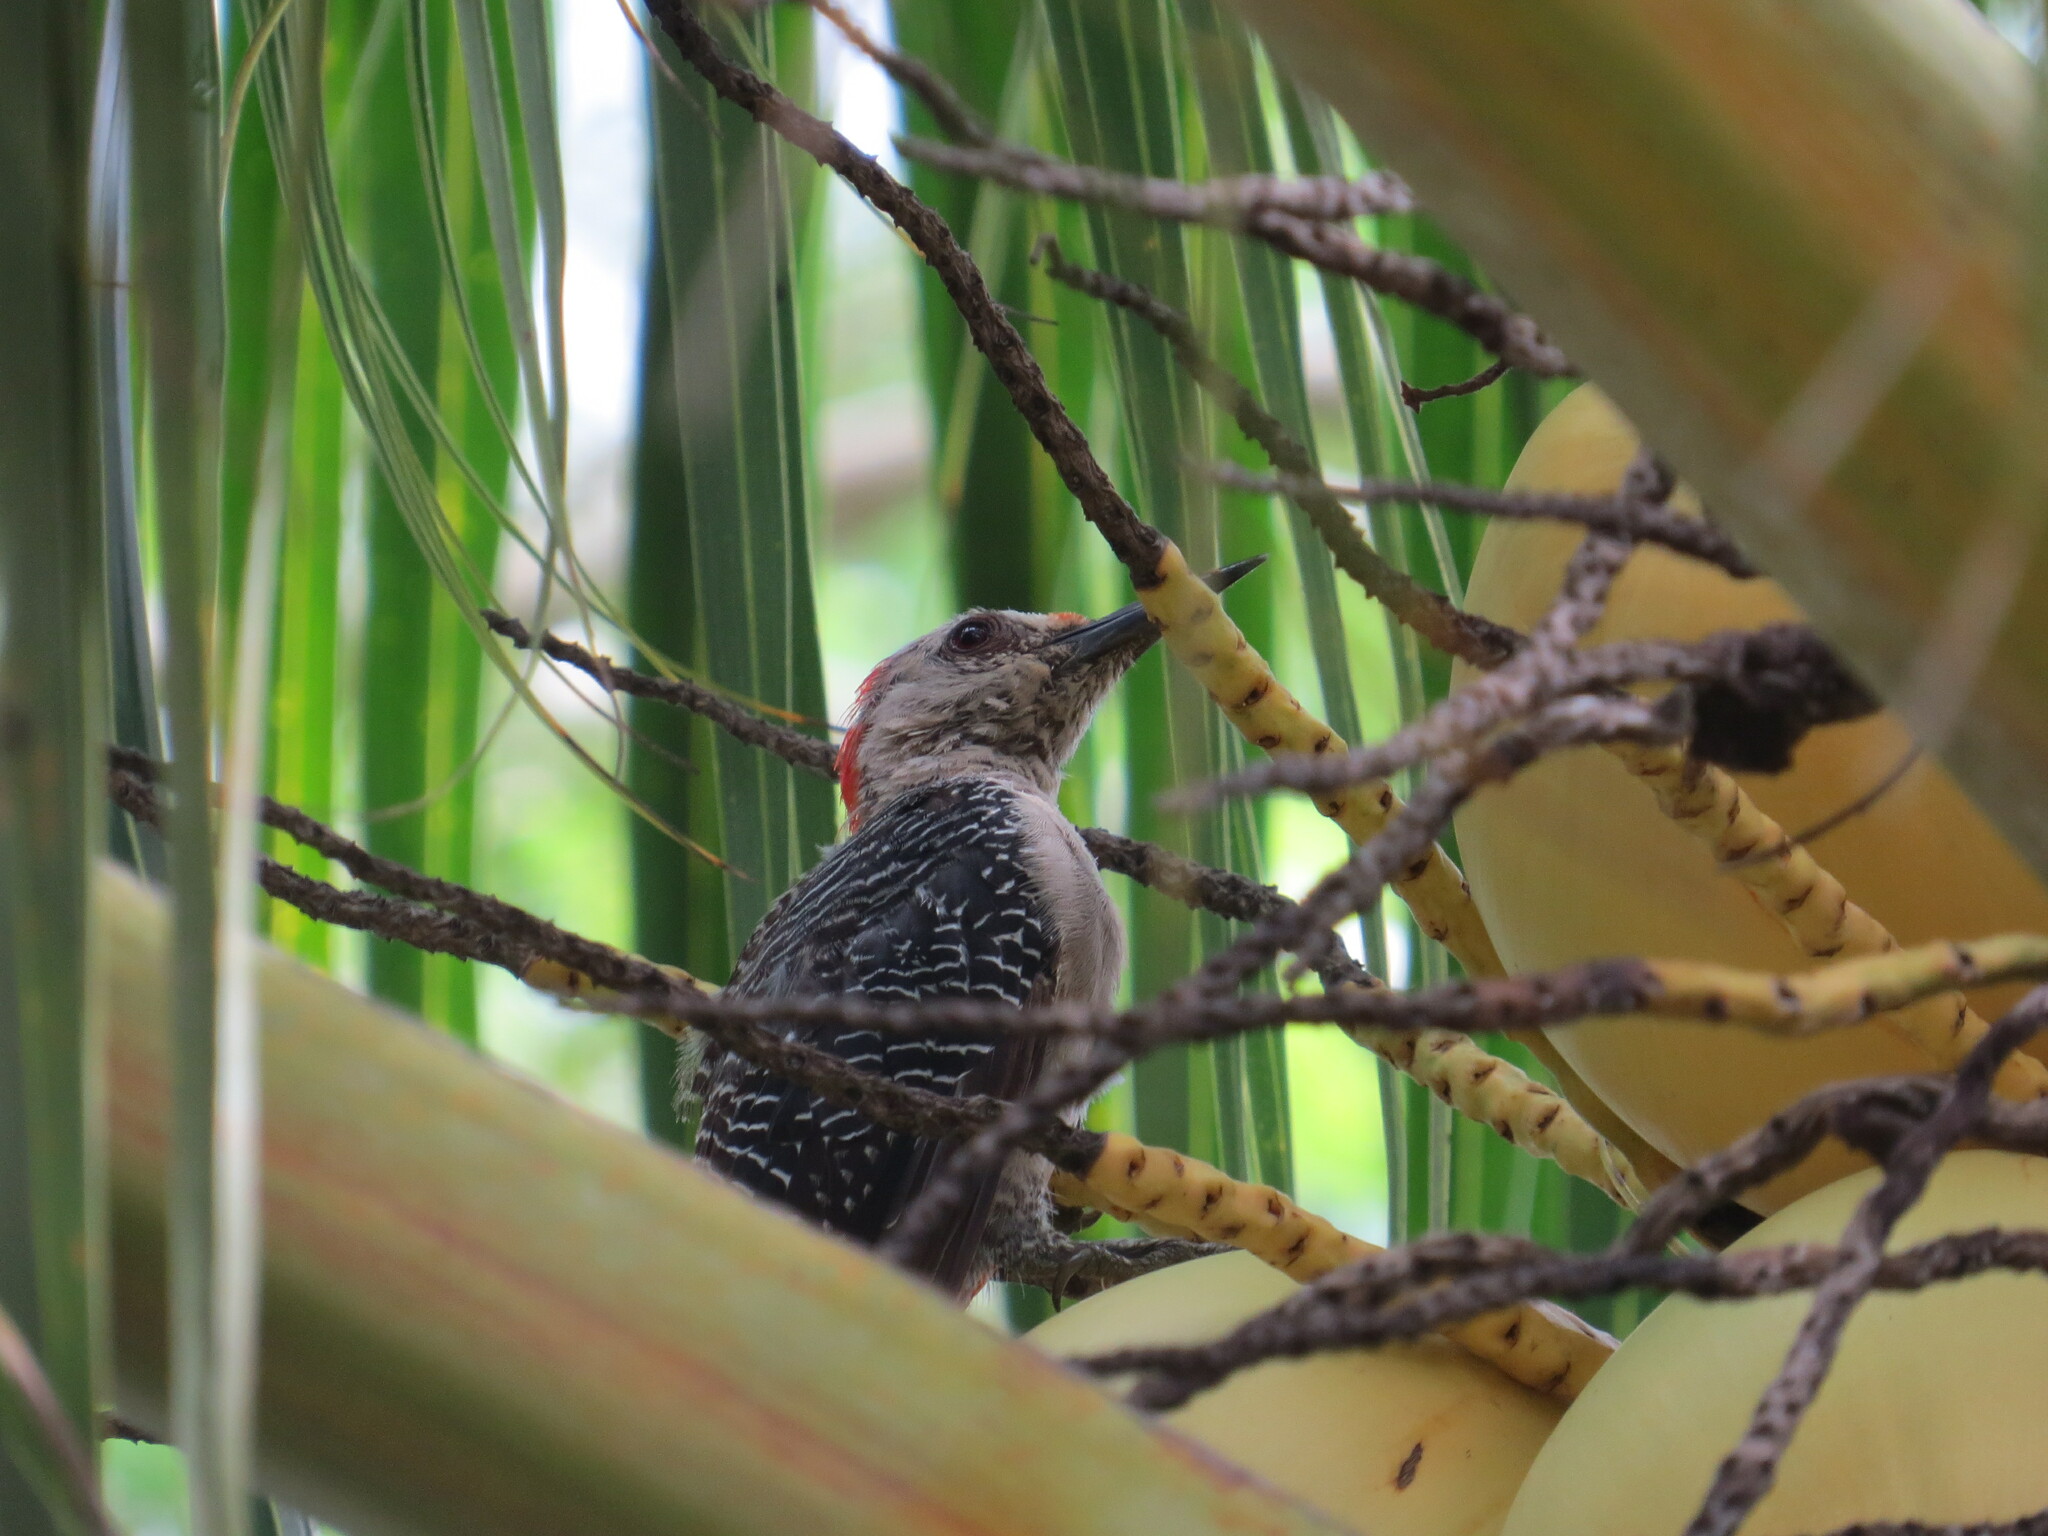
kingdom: Animalia
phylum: Chordata
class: Aves
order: Piciformes
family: Picidae
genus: Melanerpes
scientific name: Melanerpes aurifrons
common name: Golden-fronted woodpecker
